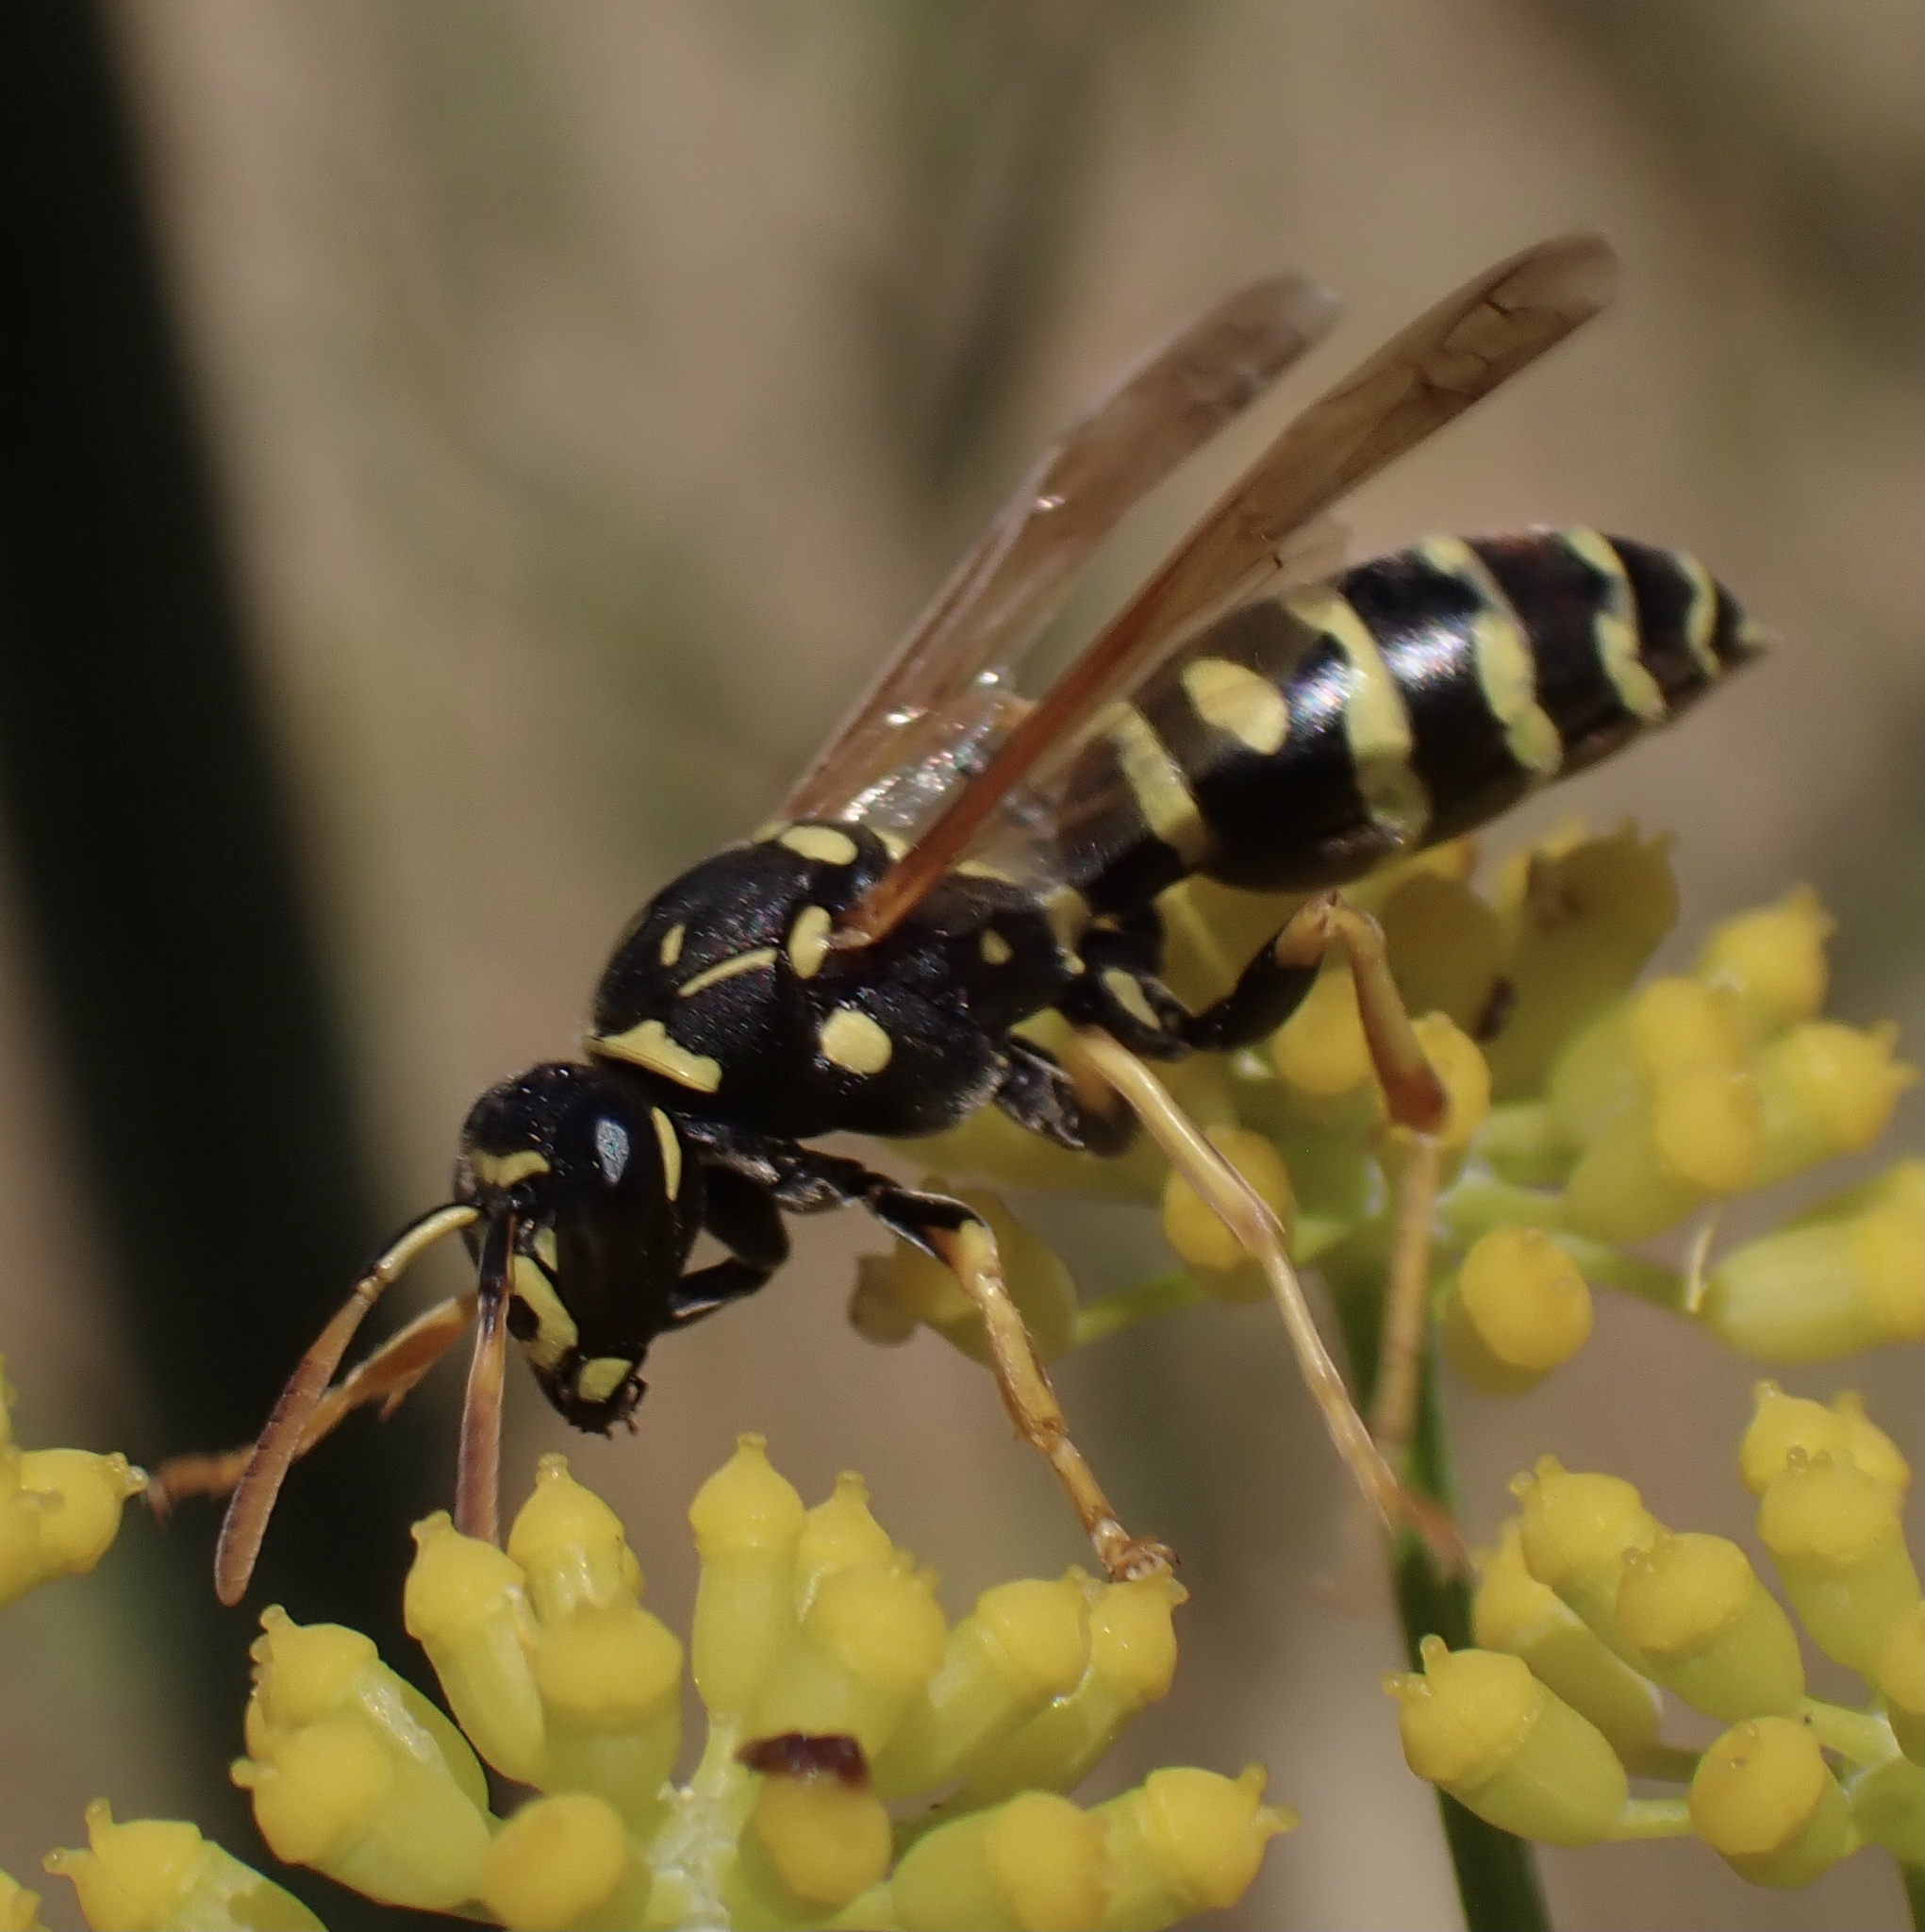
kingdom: Animalia
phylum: Arthropoda
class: Insecta
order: Hymenoptera
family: Eumenidae
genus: Polistes
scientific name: Polistes gallicus
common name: Paper wasp
